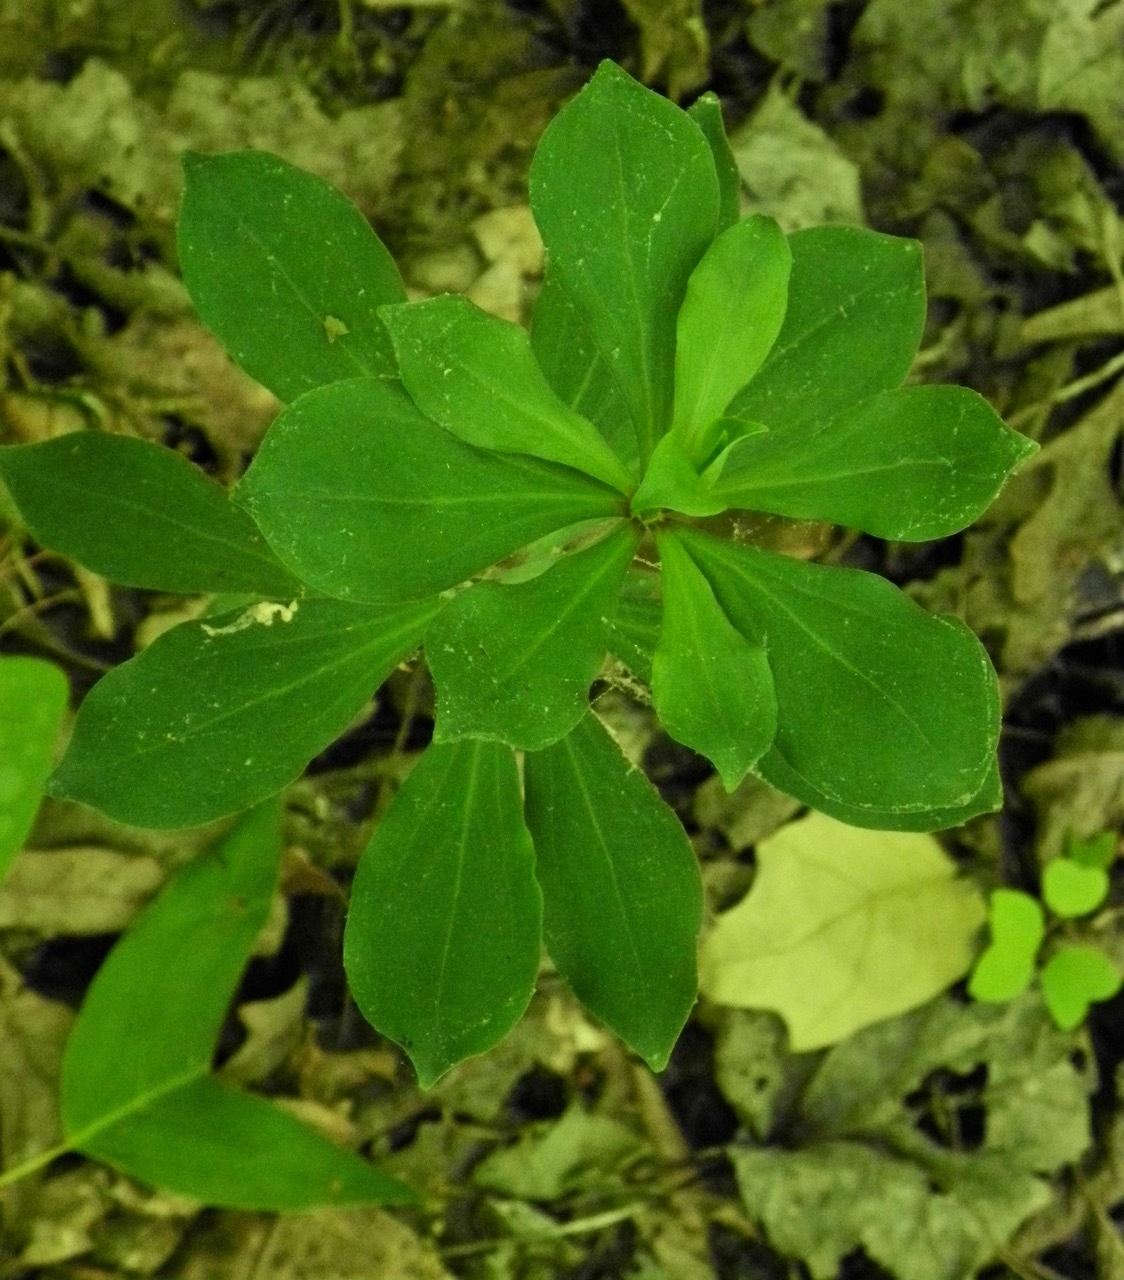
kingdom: Plantae
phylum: Tracheophyta
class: Liliopsida
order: Liliales
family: Liliaceae
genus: Medeola
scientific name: Medeola virginiana
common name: Indian cucumber-root
